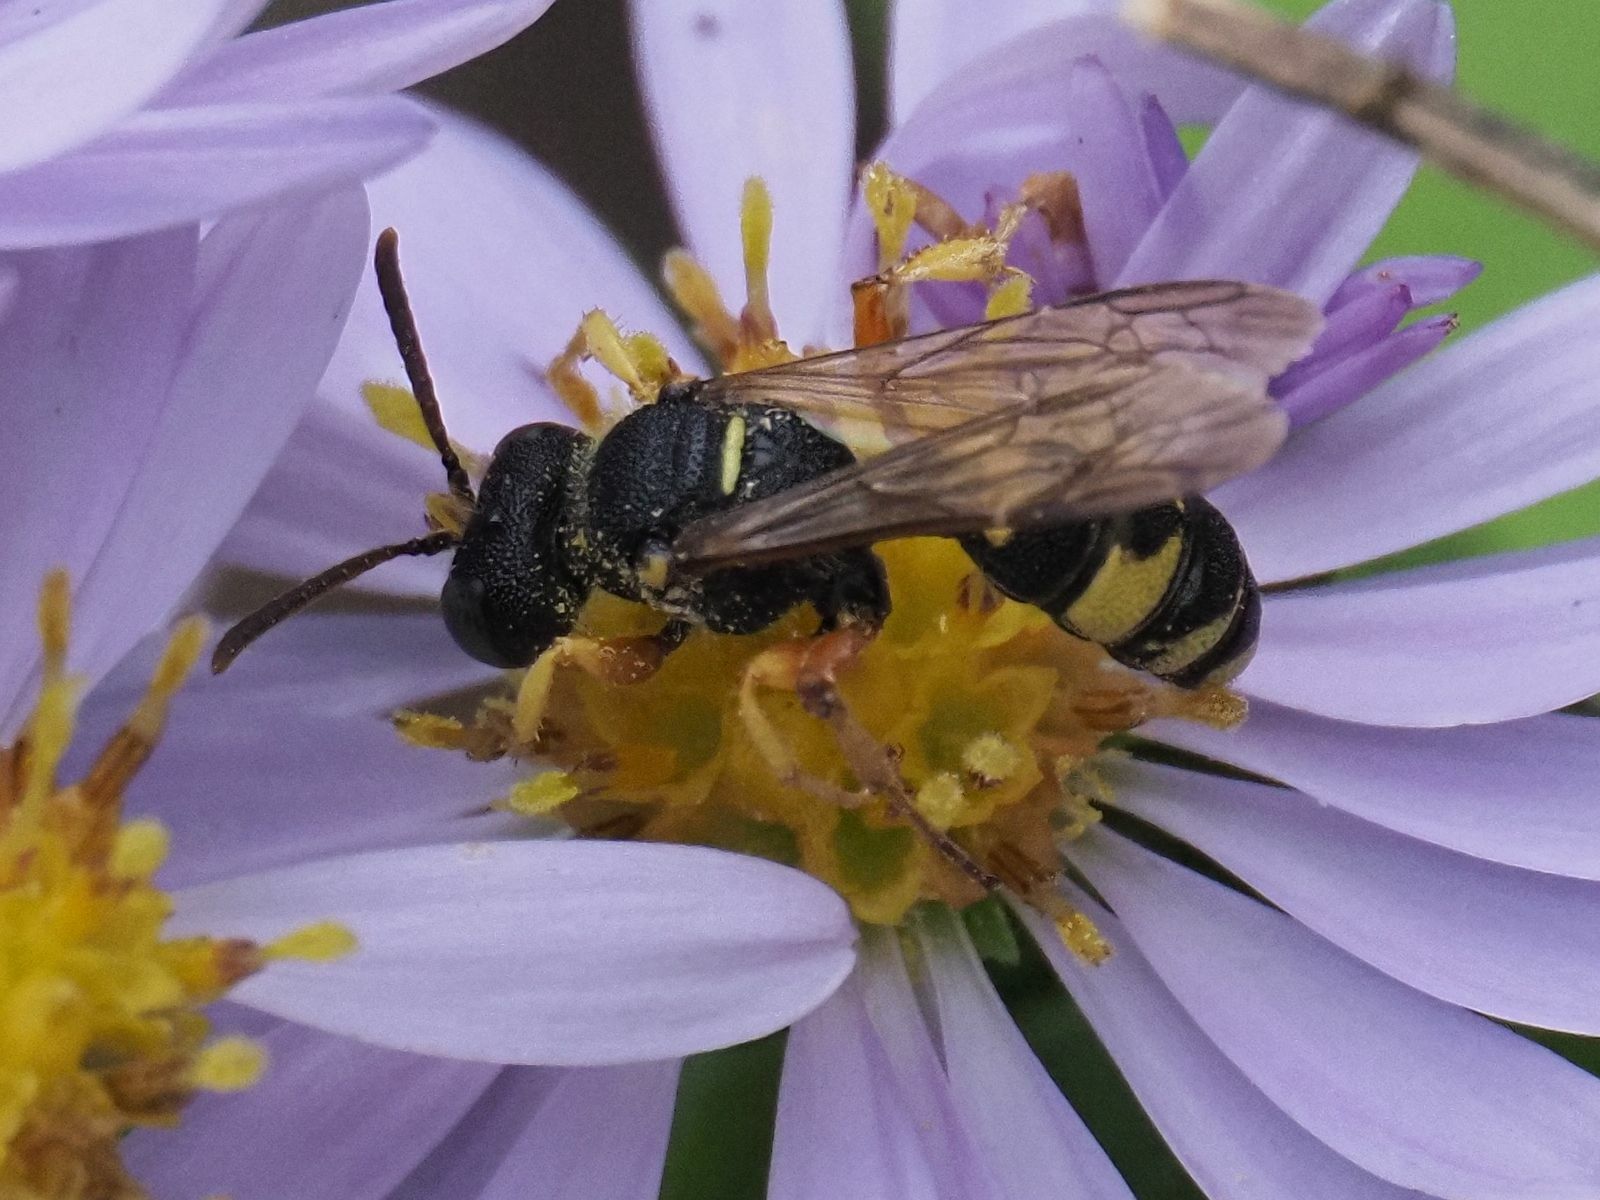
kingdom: Animalia
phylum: Arthropoda
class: Insecta
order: Hymenoptera
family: Crabronidae
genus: Cerceris
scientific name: Cerceris rybyensis
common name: Ornate tailed digger wasp
